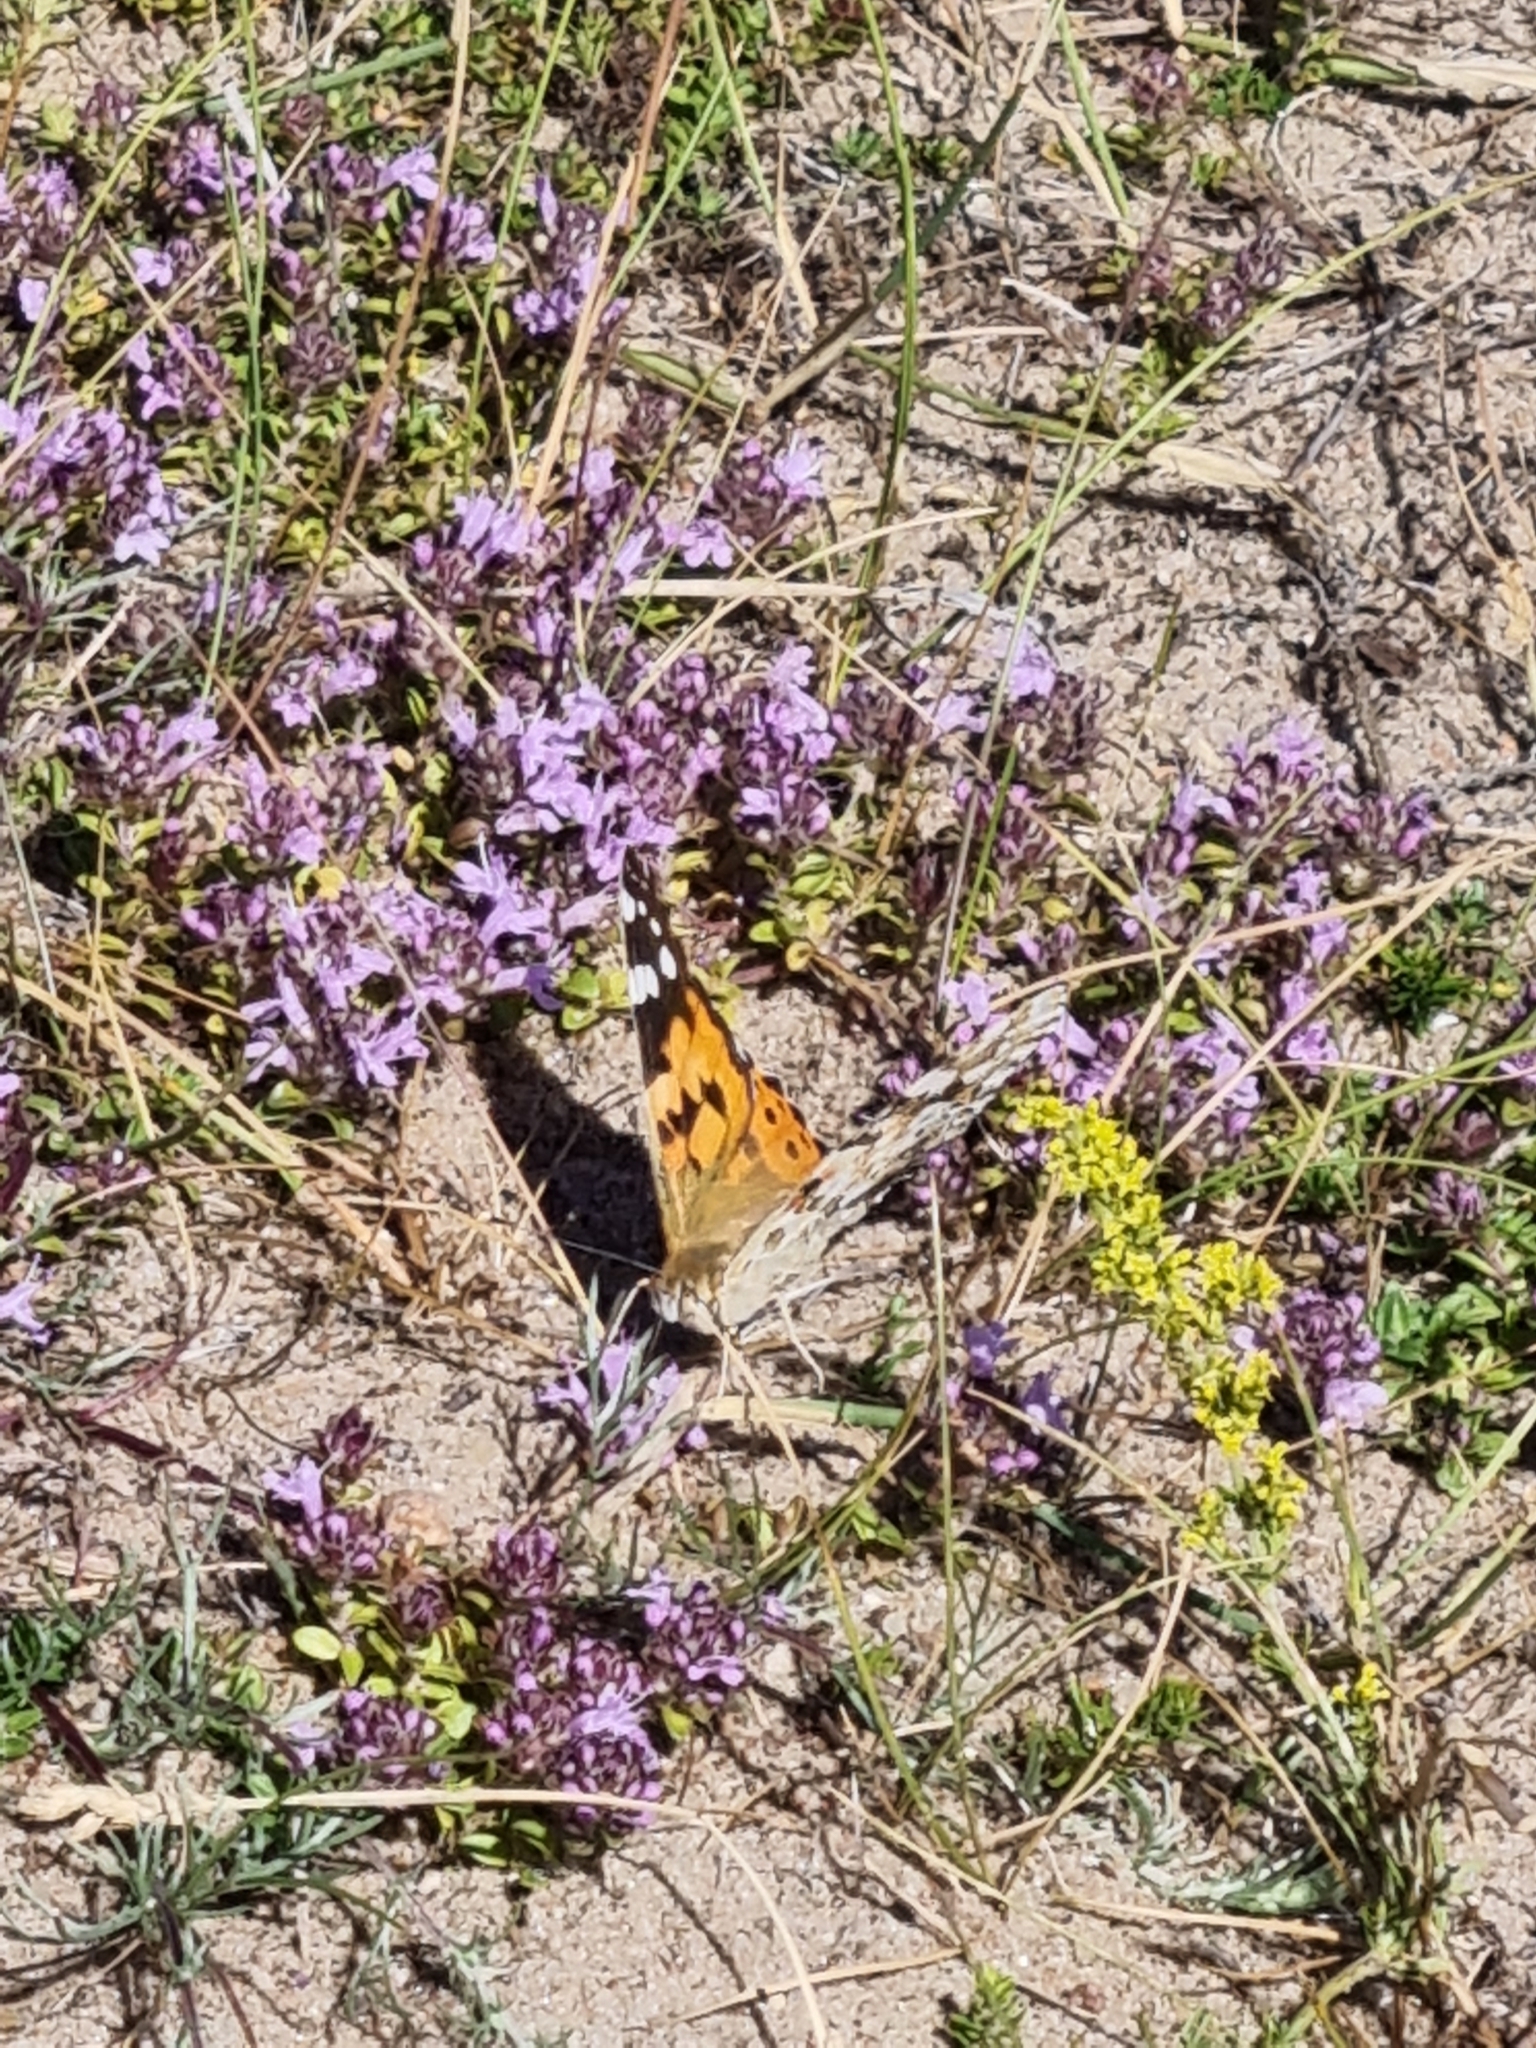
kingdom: Animalia
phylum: Arthropoda
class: Insecta
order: Lepidoptera
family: Nymphalidae
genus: Vanessa
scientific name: Vanessa cardui
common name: Painted lady
